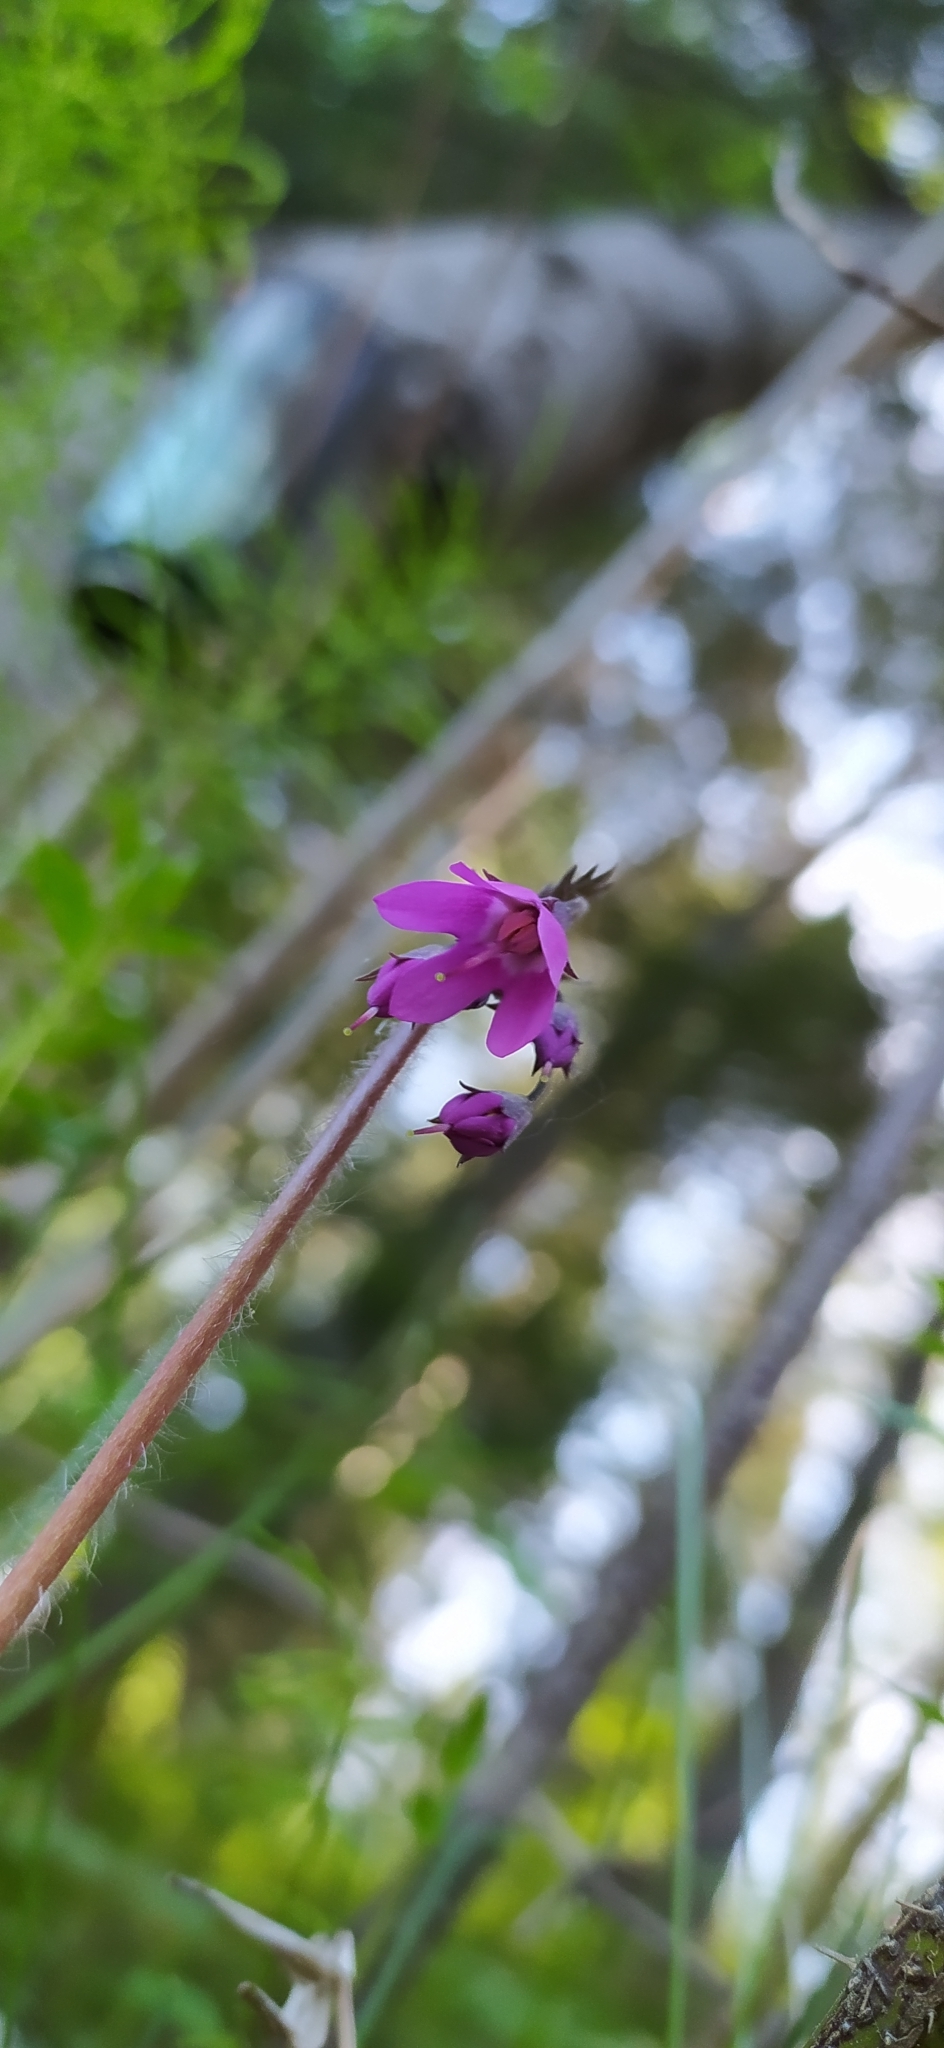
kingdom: Plantae
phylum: Tracheophyta
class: Magnoliopsida
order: Ericales
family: Primulaceae
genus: Primula
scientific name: Primula matthioli
